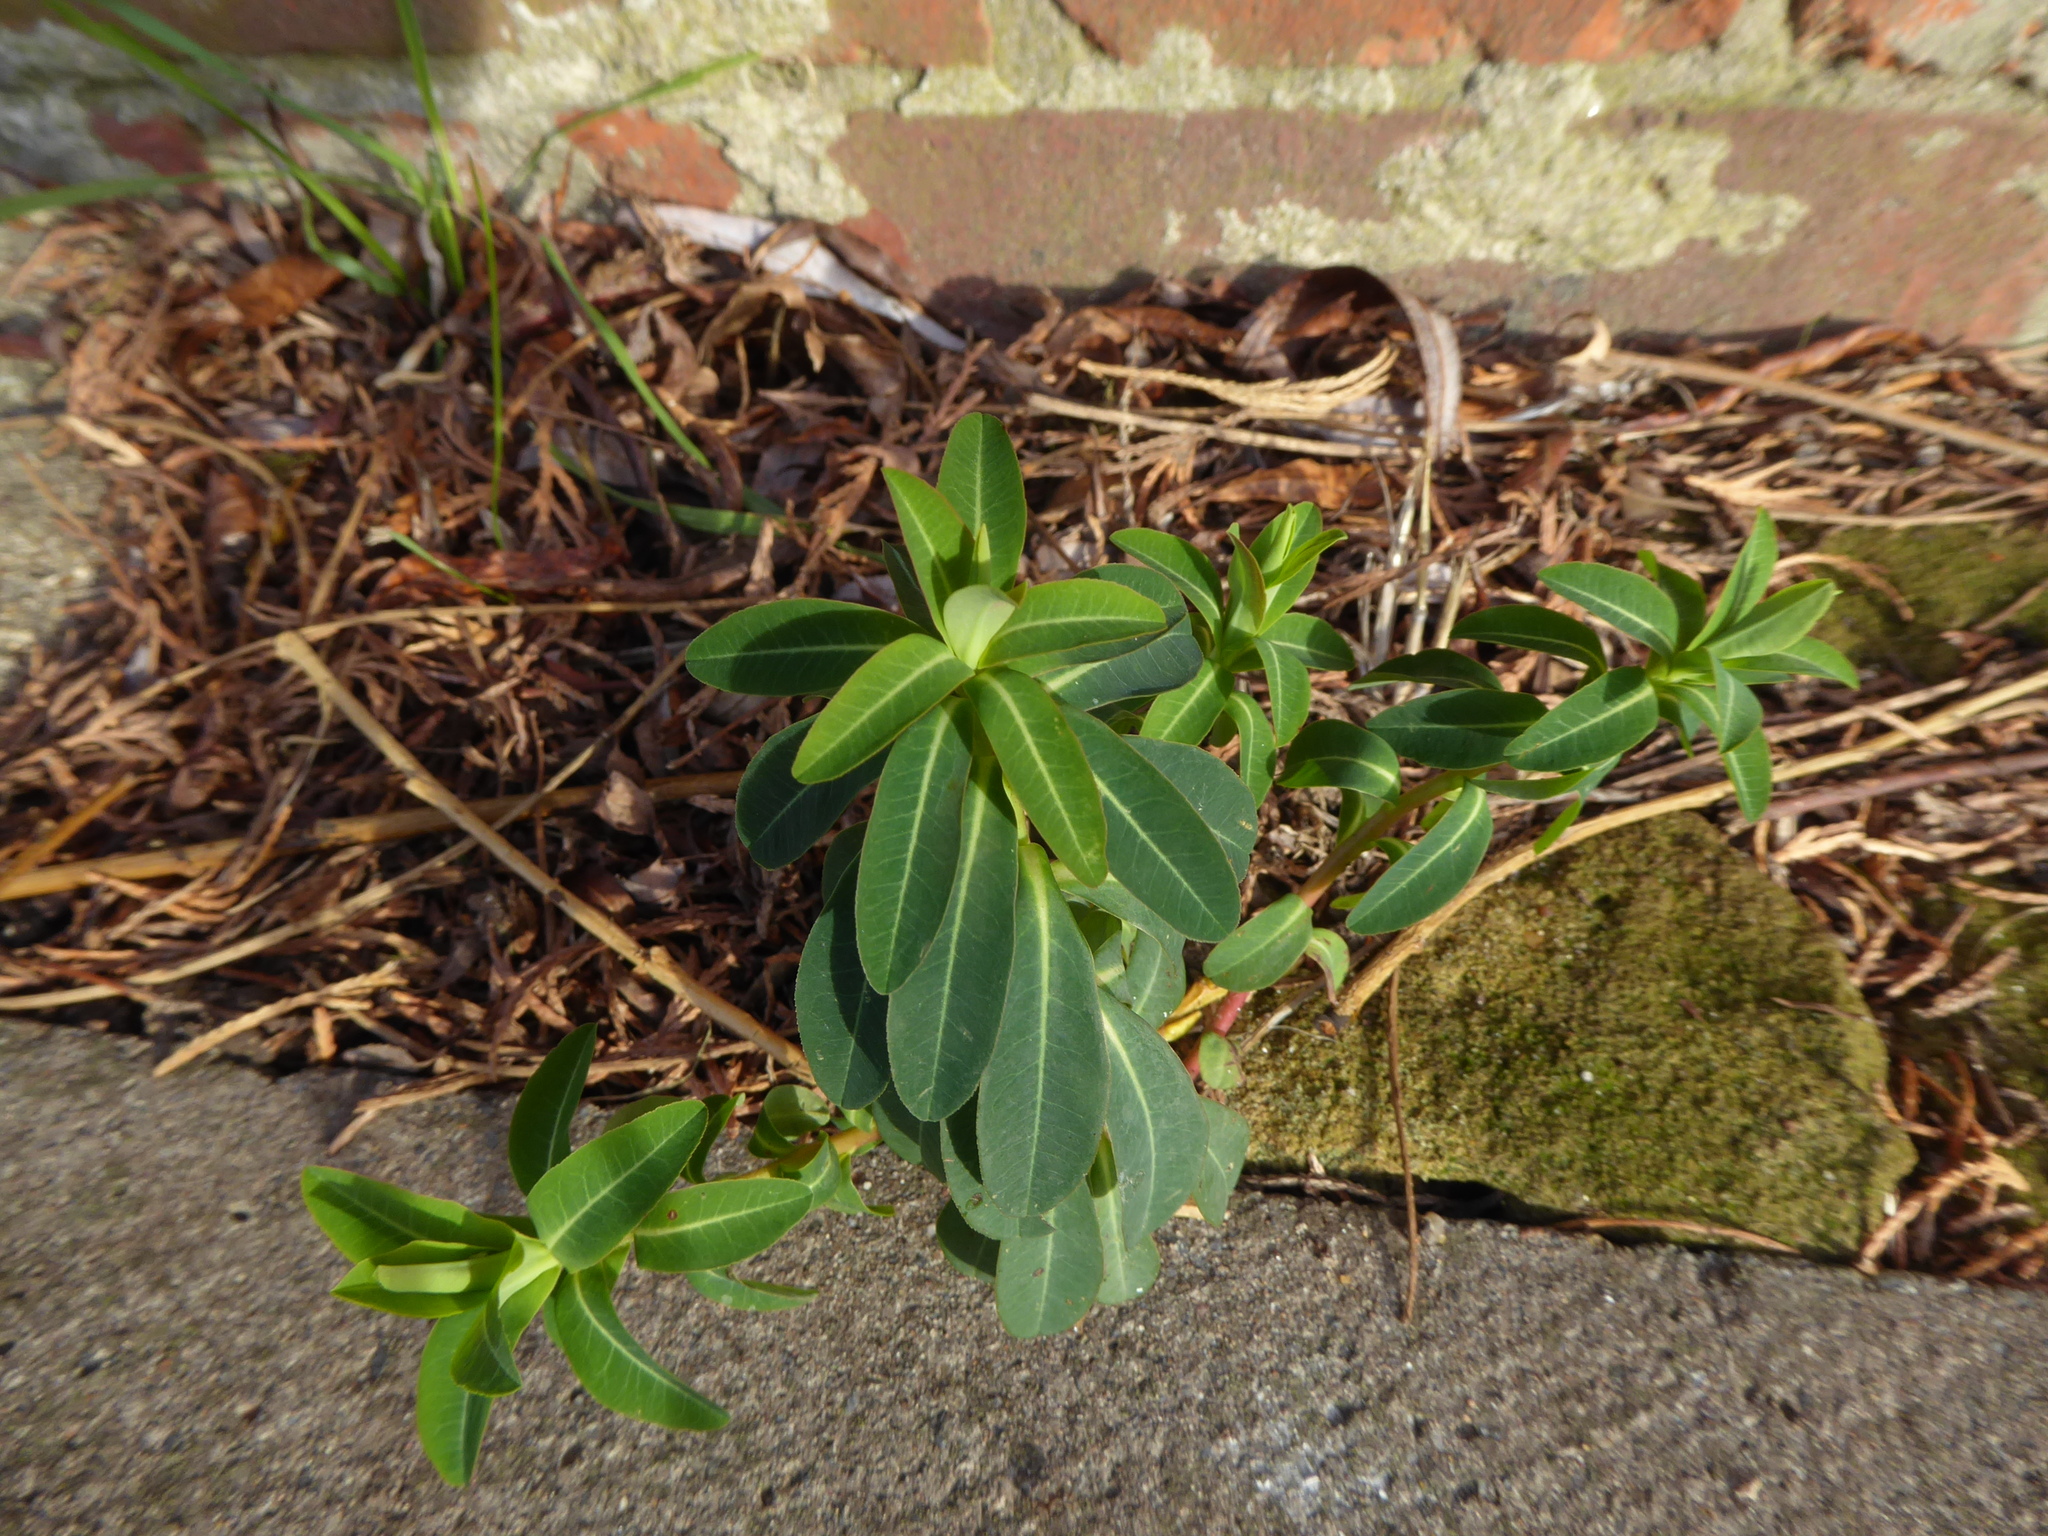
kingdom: Plantae
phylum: Tracheophyta
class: Magnoliopsida
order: Malpighiales
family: Euphorbiaceae
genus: Euphorbia
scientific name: Euphorbia oblongata
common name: Balkan spurge
